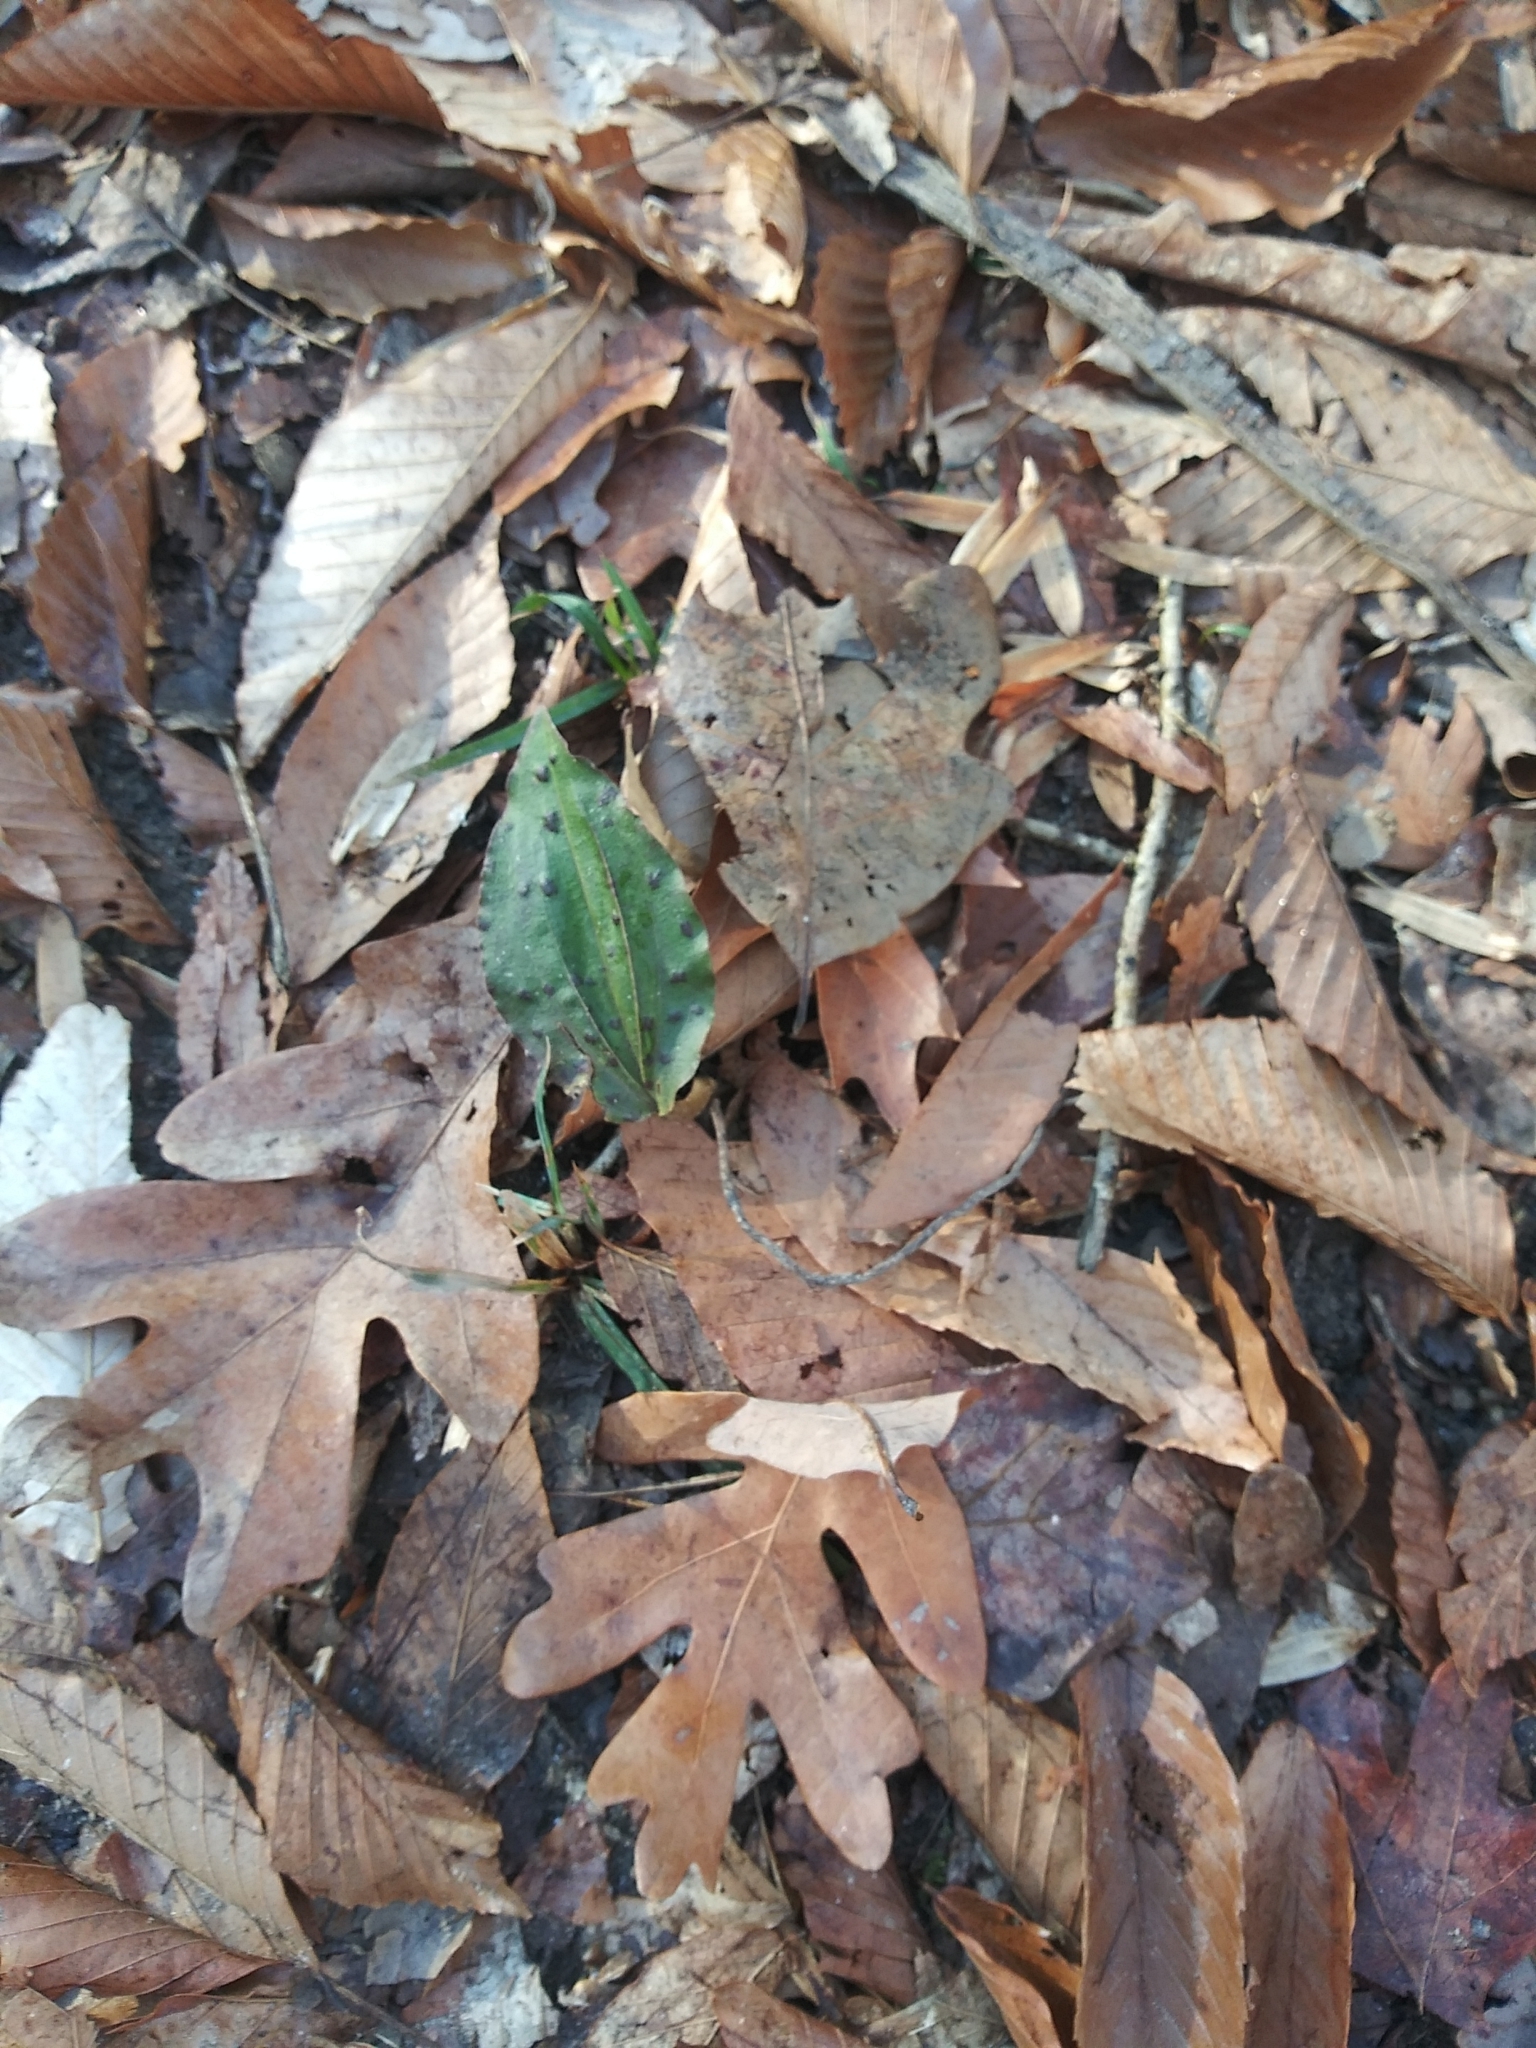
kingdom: Plantae
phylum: Tracheophyta
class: Liliopsida
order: Asparagales
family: Orchidaceae
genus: Tipularia
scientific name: Tipularia discolor
